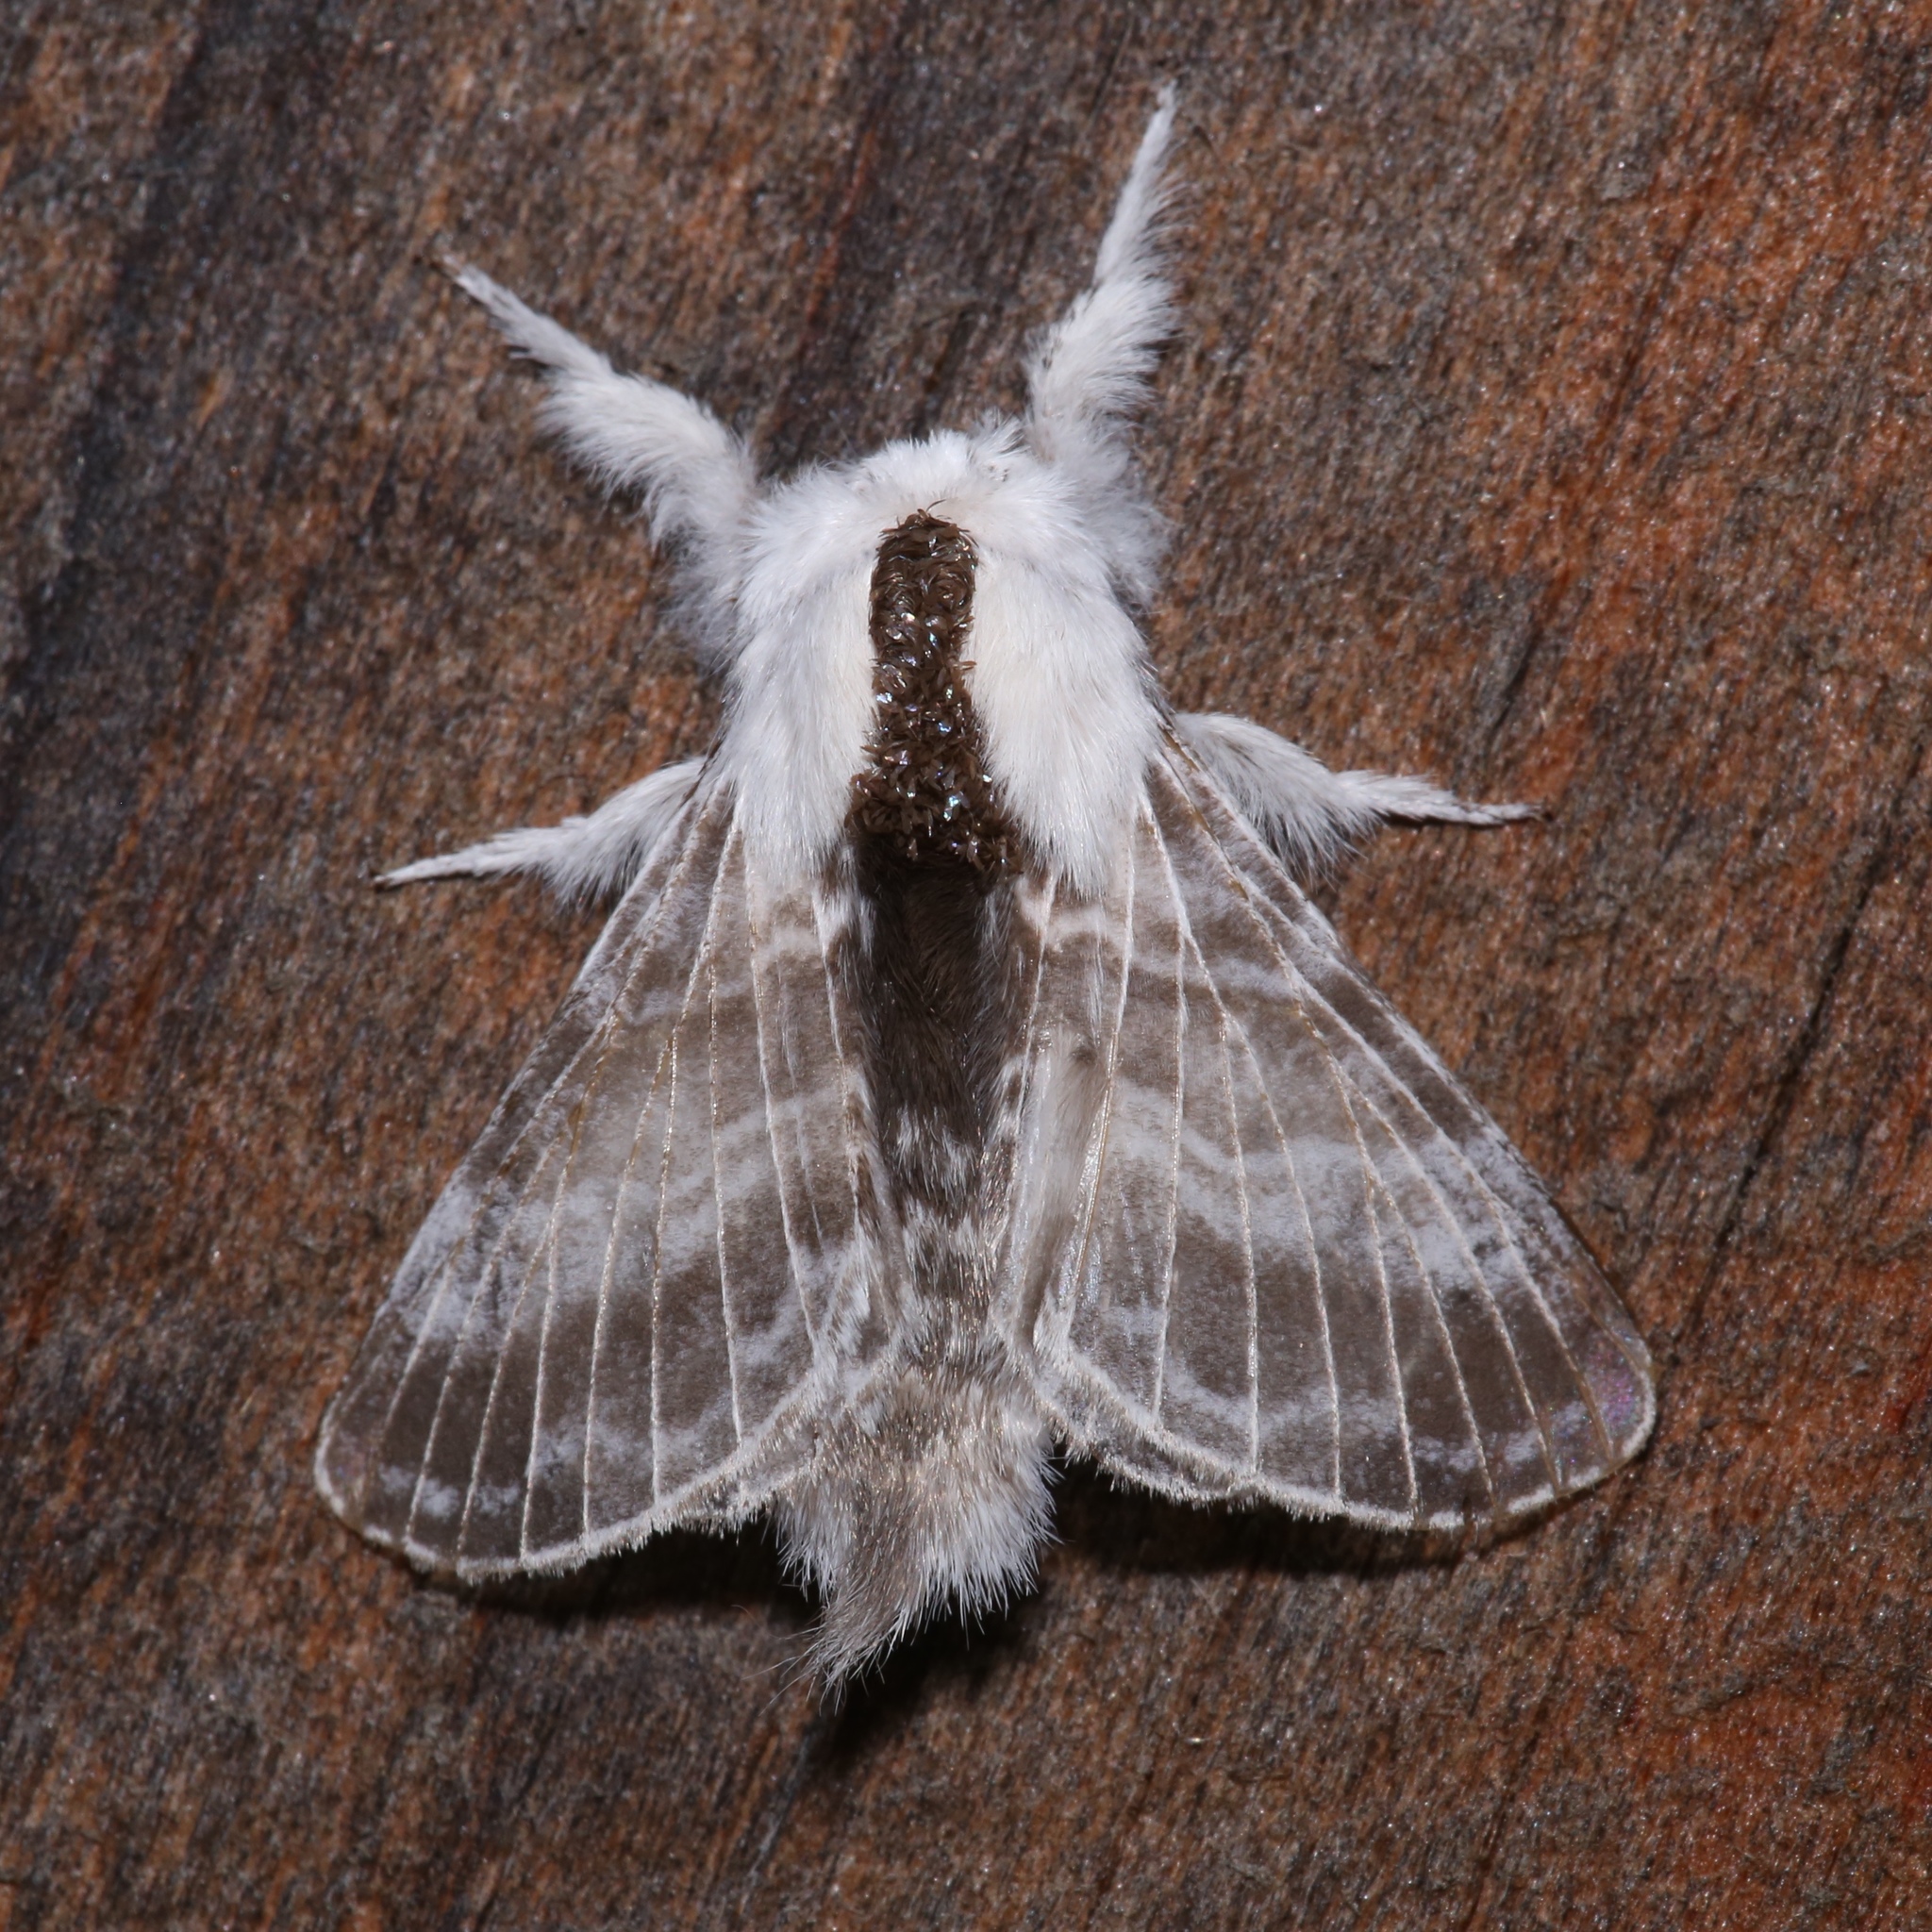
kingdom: Animalia
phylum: Arthropoda
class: Insecta
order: Lepidoptera
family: Lasiocampidae
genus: Tolype
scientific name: Tolype velleda
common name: Large tolype moth
